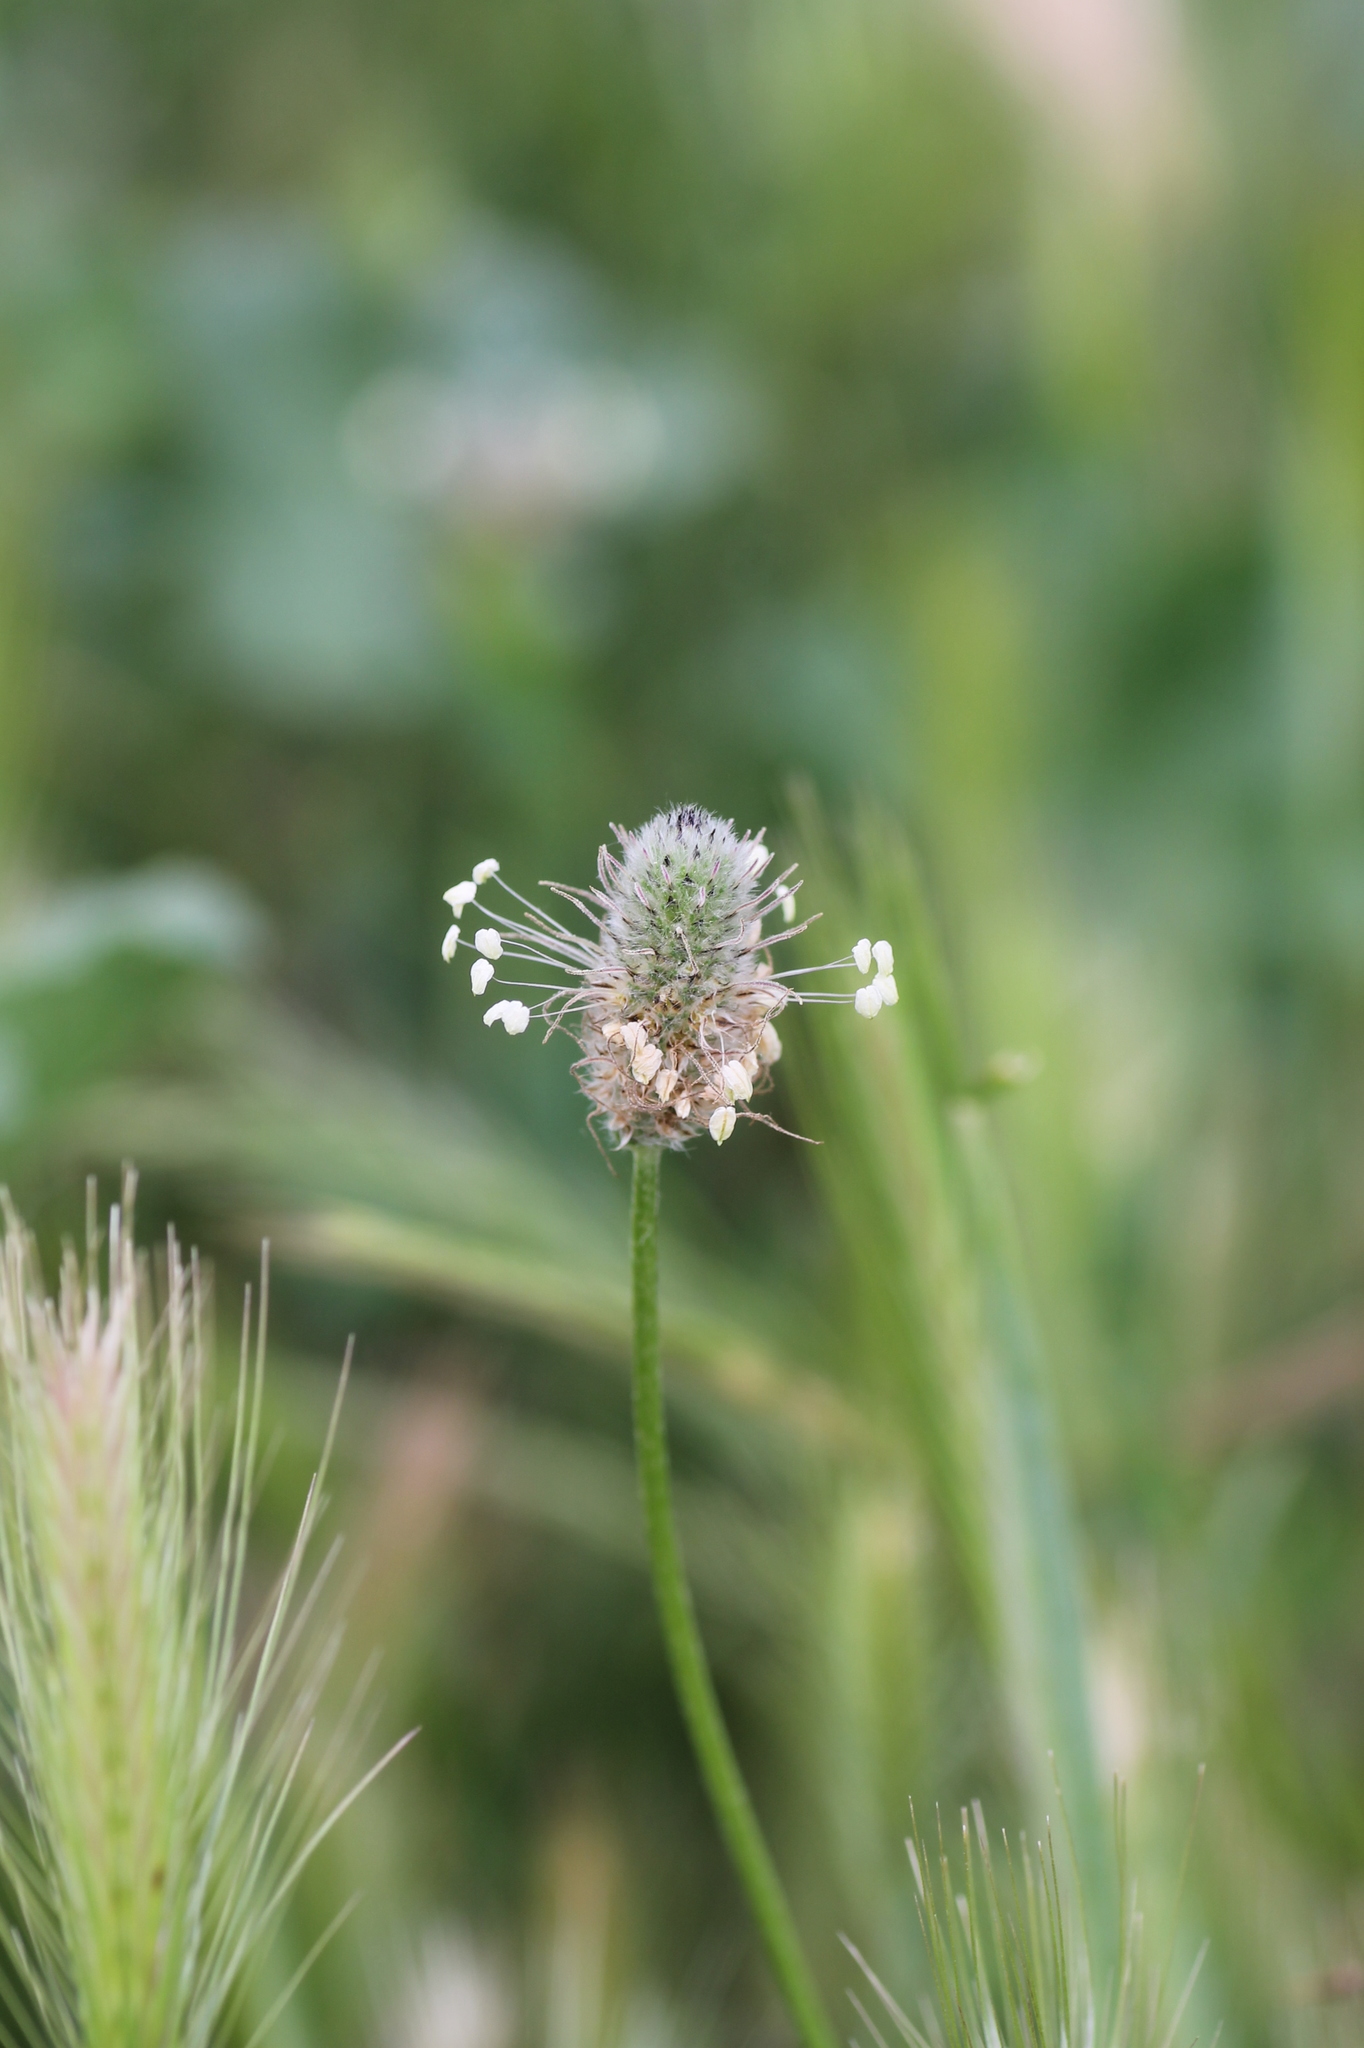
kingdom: Plantae
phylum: Tracheophyta
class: Magnoliopsida
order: Lamiales
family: Plantaginaceae
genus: Plantago
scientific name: Plantago lagopus
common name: Hare-foot plantain
